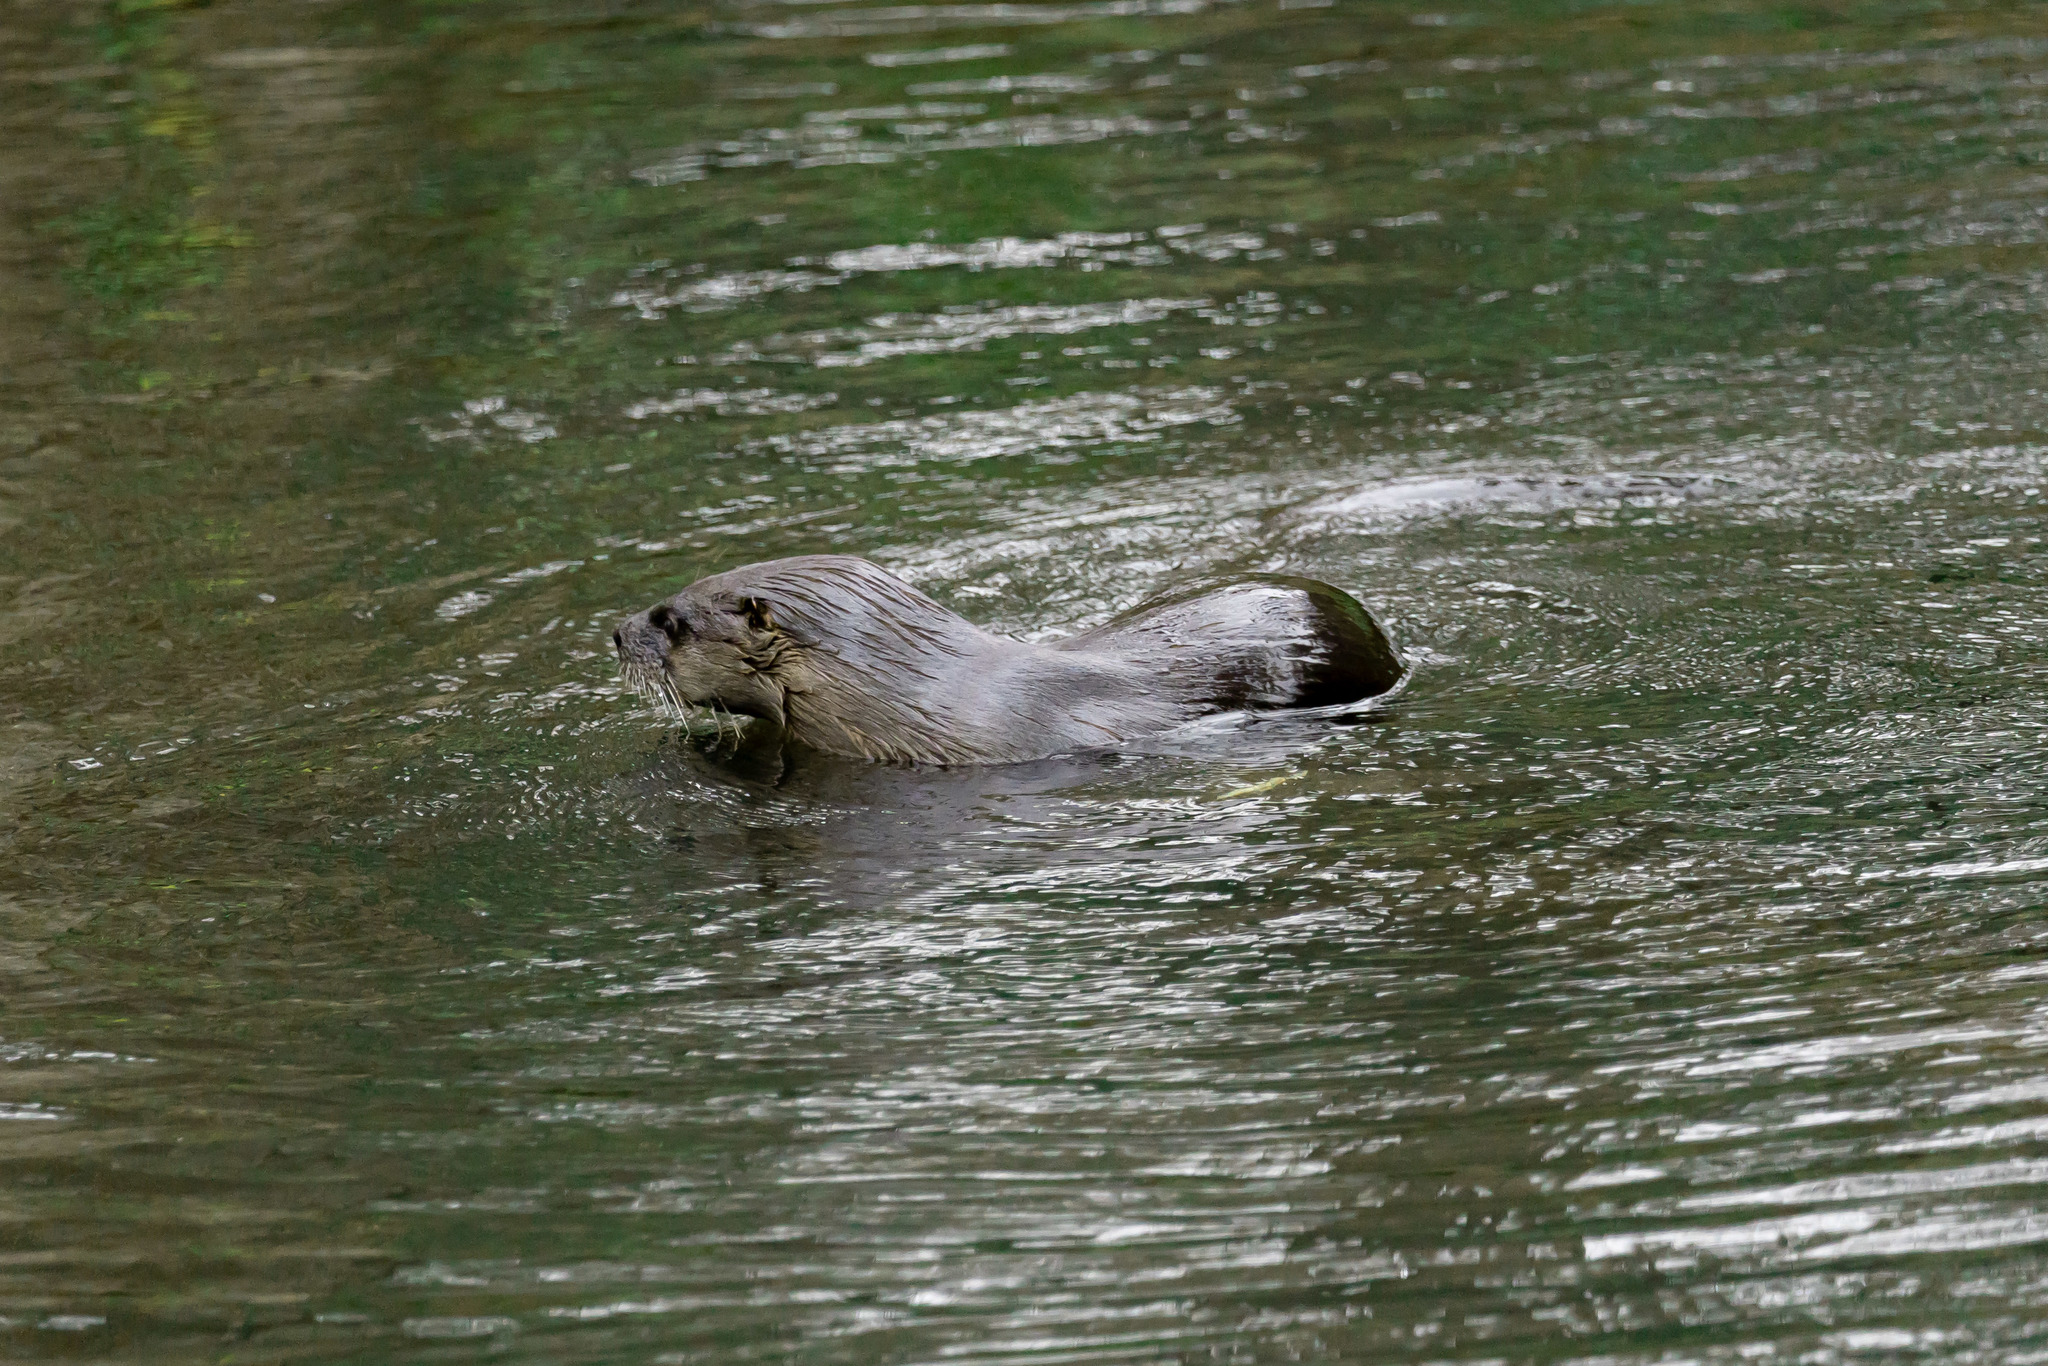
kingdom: Animalia
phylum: Chordata
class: Mammalia
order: Carnivora
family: Mustelidae
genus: Lontra
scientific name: Lontra canadensis
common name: North american river otter
